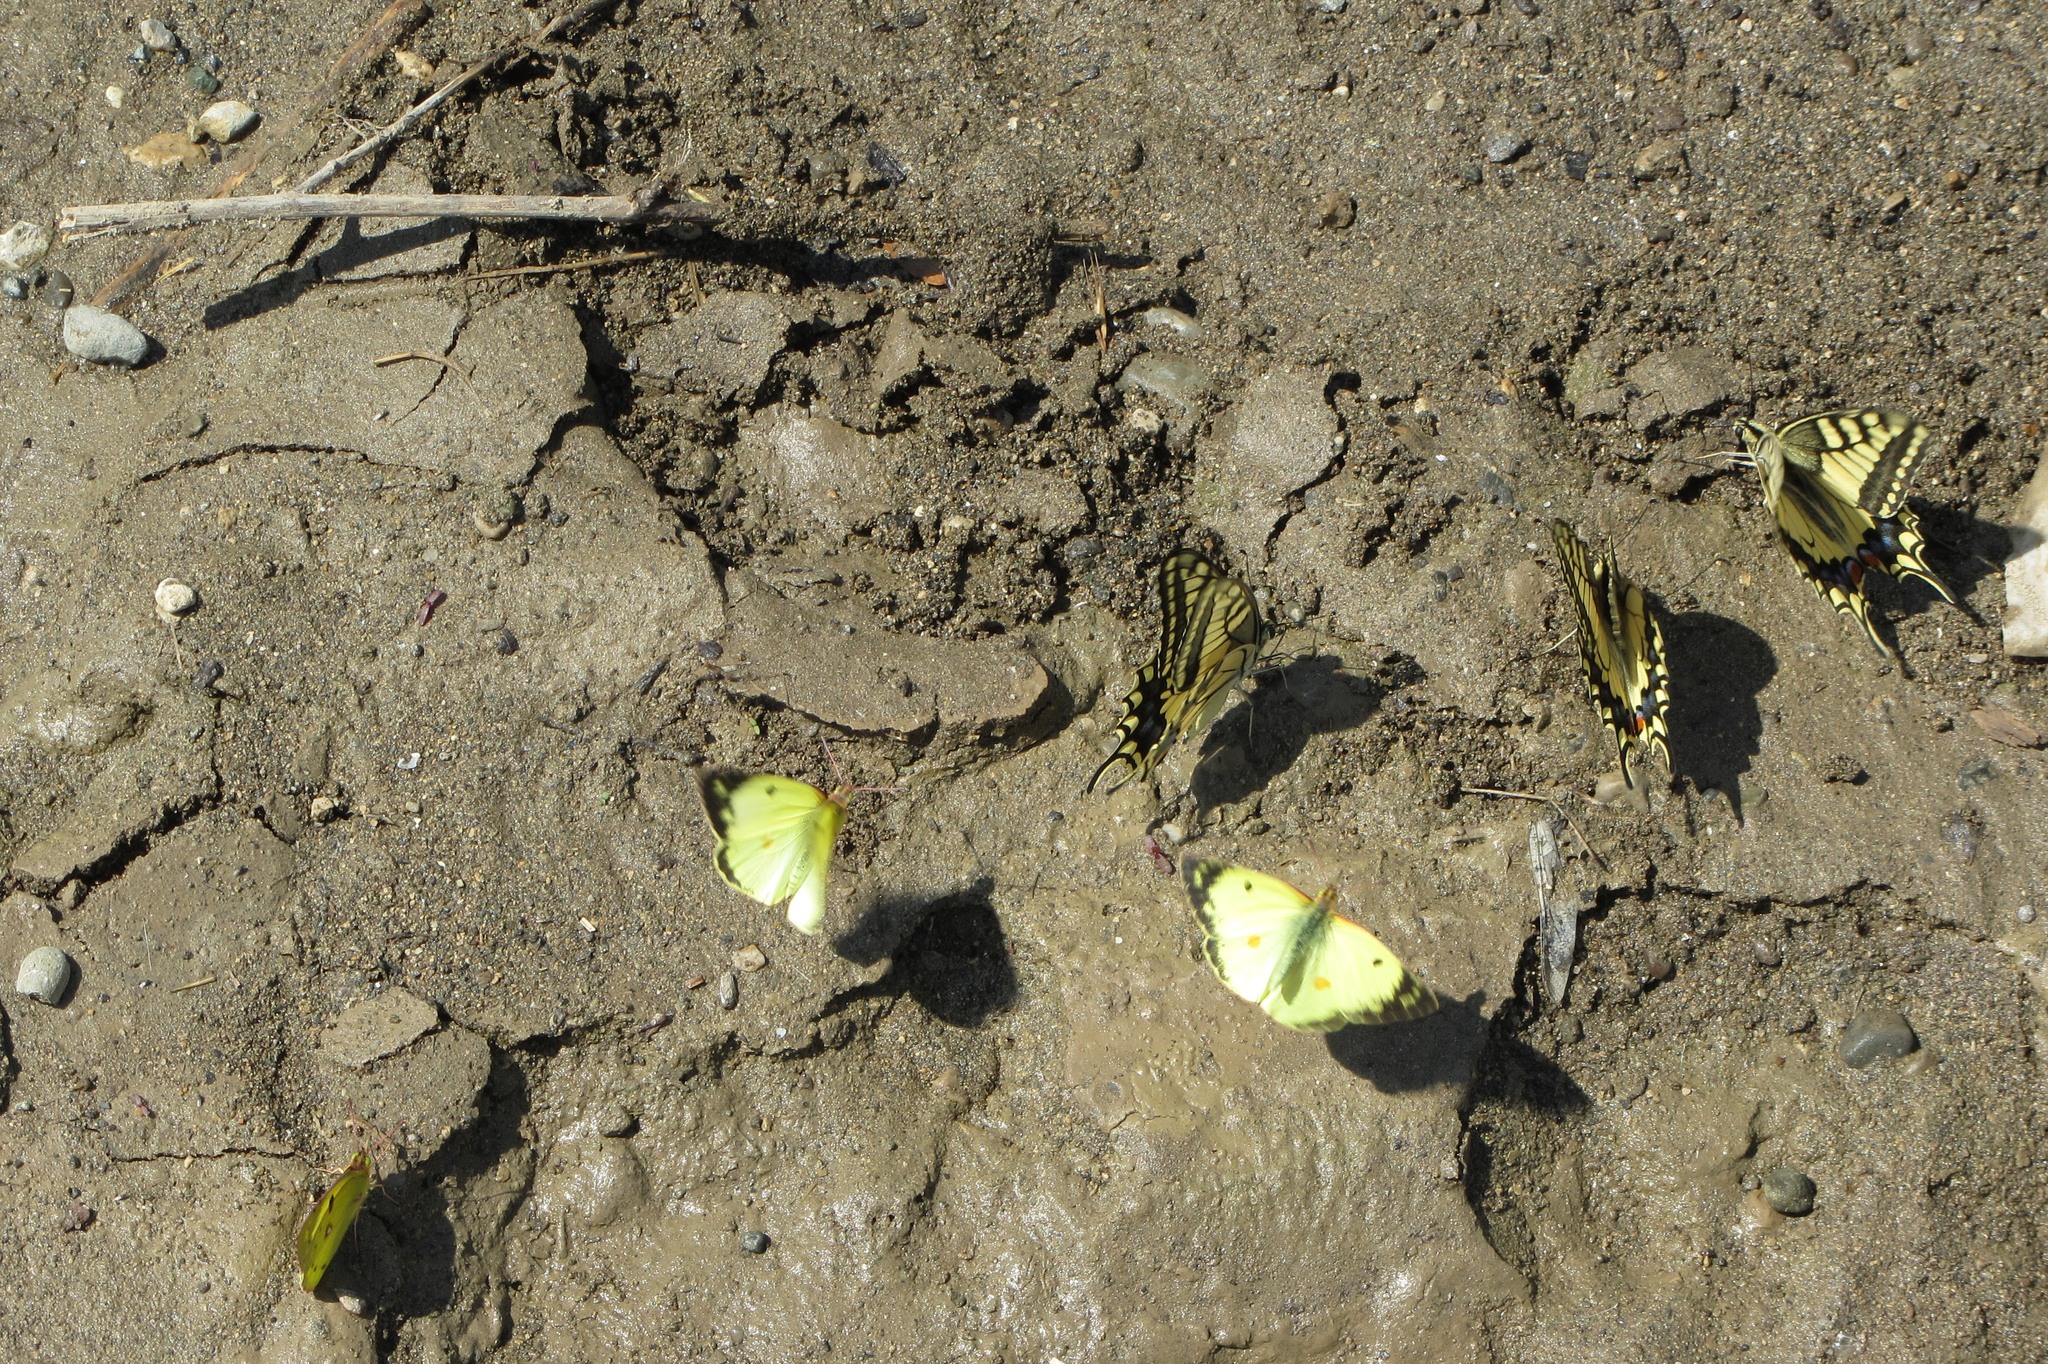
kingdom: Animalia
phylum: Arthropoda
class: Insecta
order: Lepidoptera
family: Papilionidae
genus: Papilio
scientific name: Papilio machaon
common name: Swallowtail
